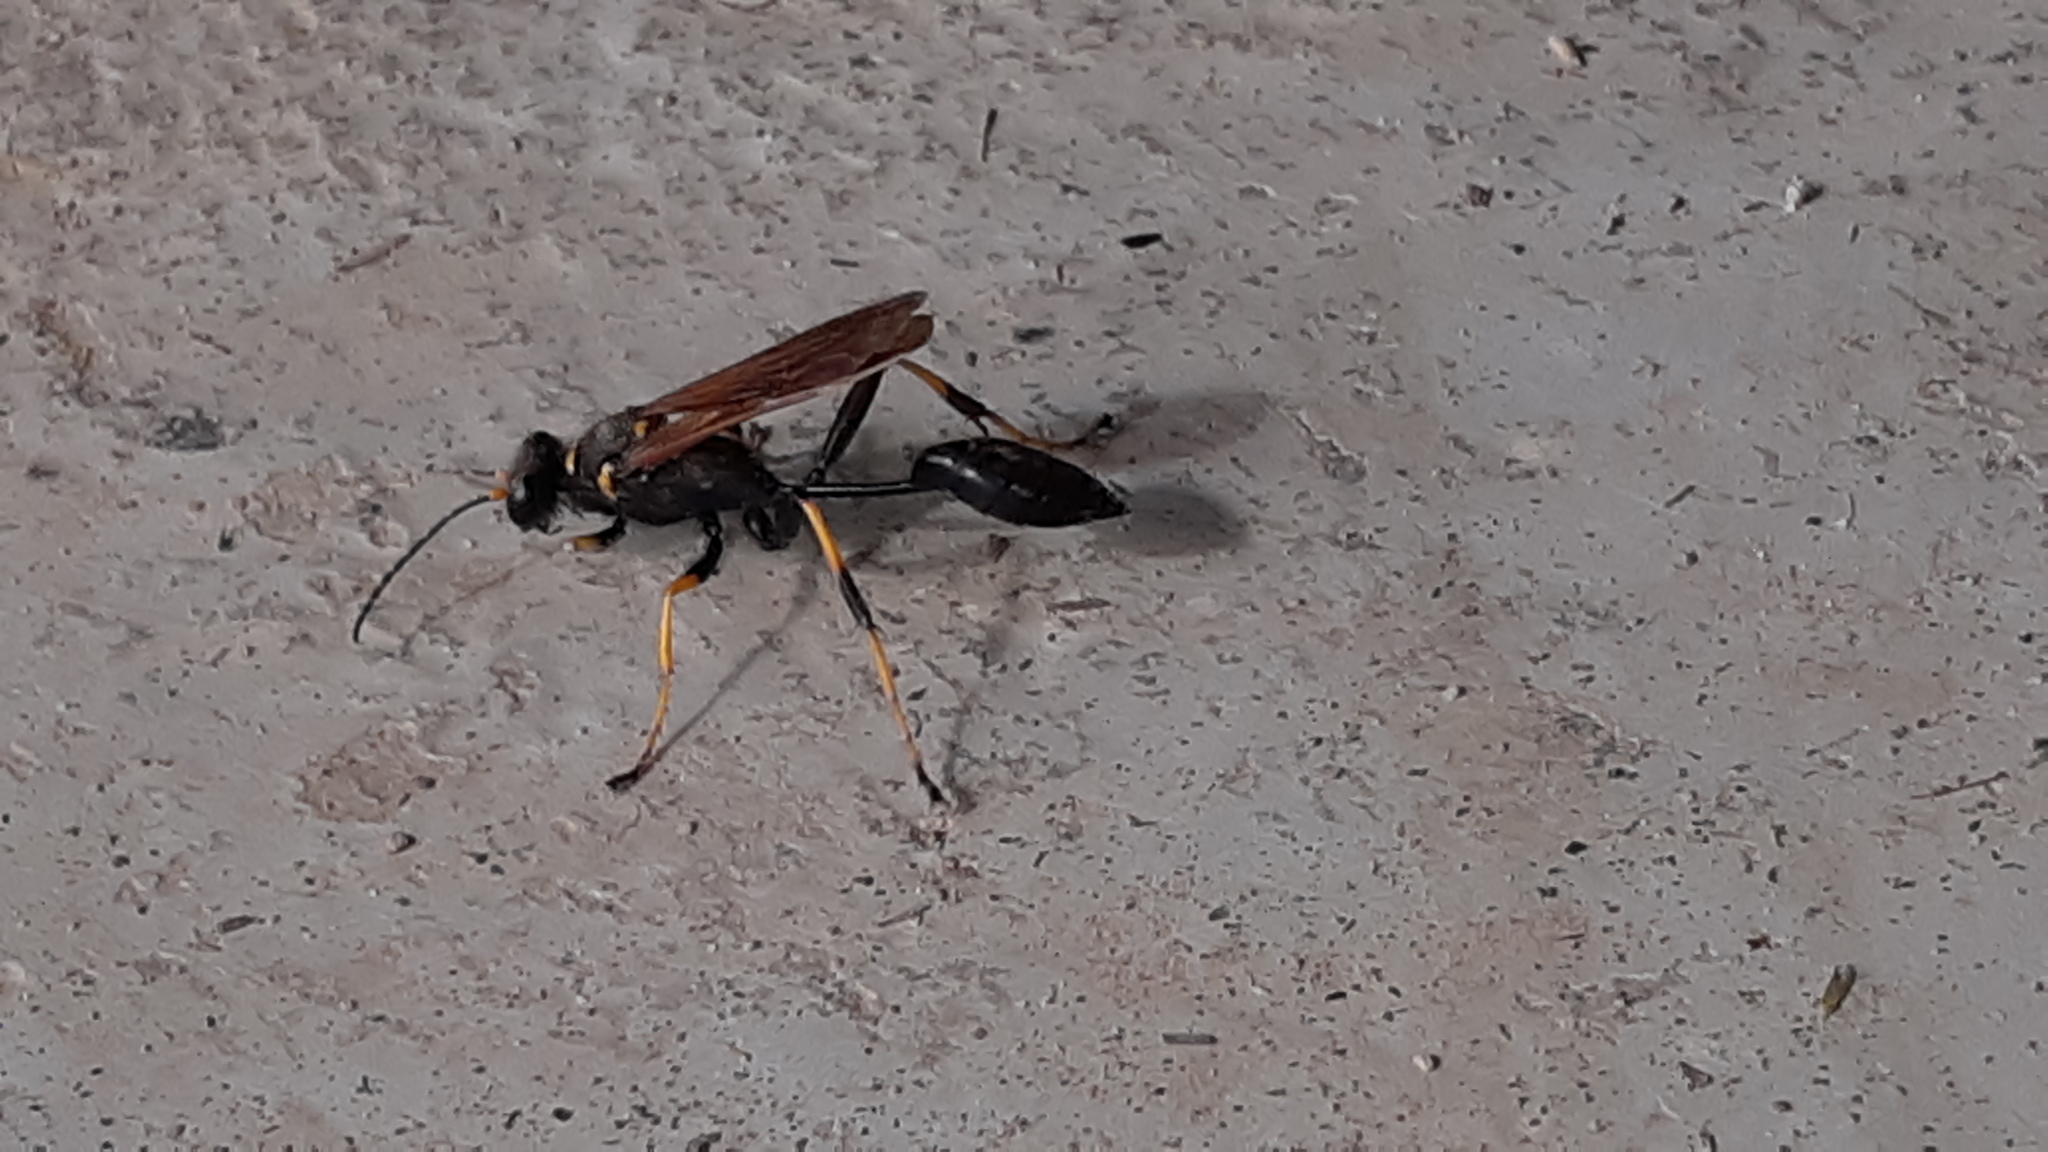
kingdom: Animalia
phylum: Arthropoda
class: Insecta
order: Hymenoptera
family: Sphecidae
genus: Sceliphron
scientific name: Sceliphron caementarium
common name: Mud dauber
